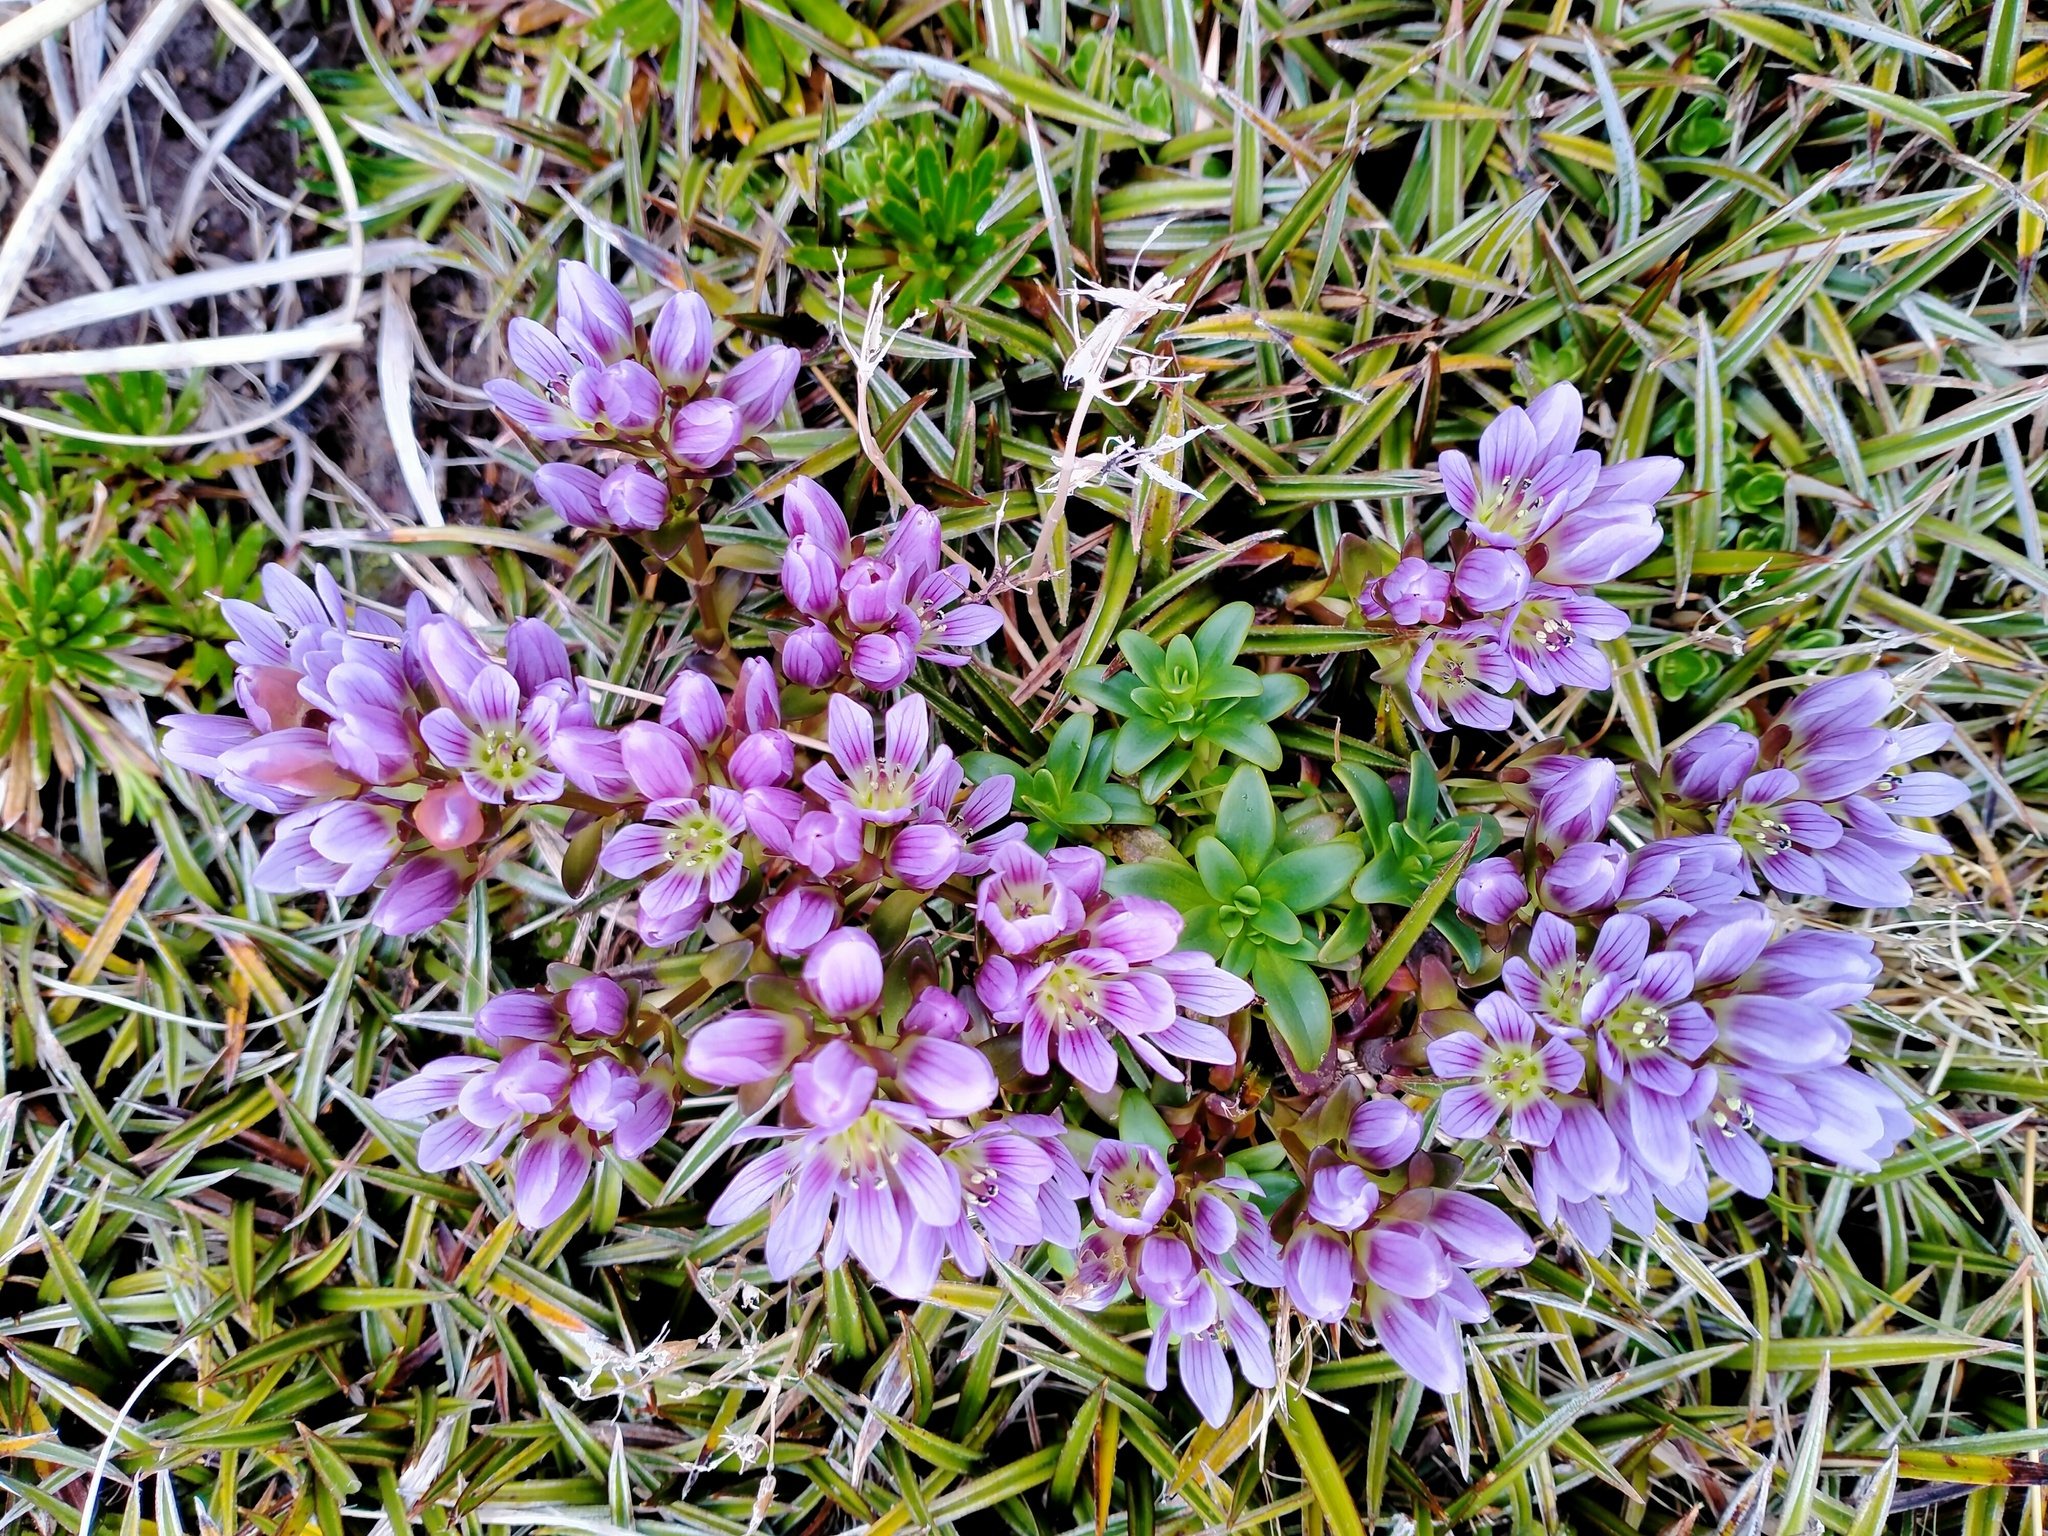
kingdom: Plantae
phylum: Tracheophyta
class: Magnoliopsida
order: Gentianales
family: Gentianaceae
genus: Gentianella
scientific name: Gentianella concinna
